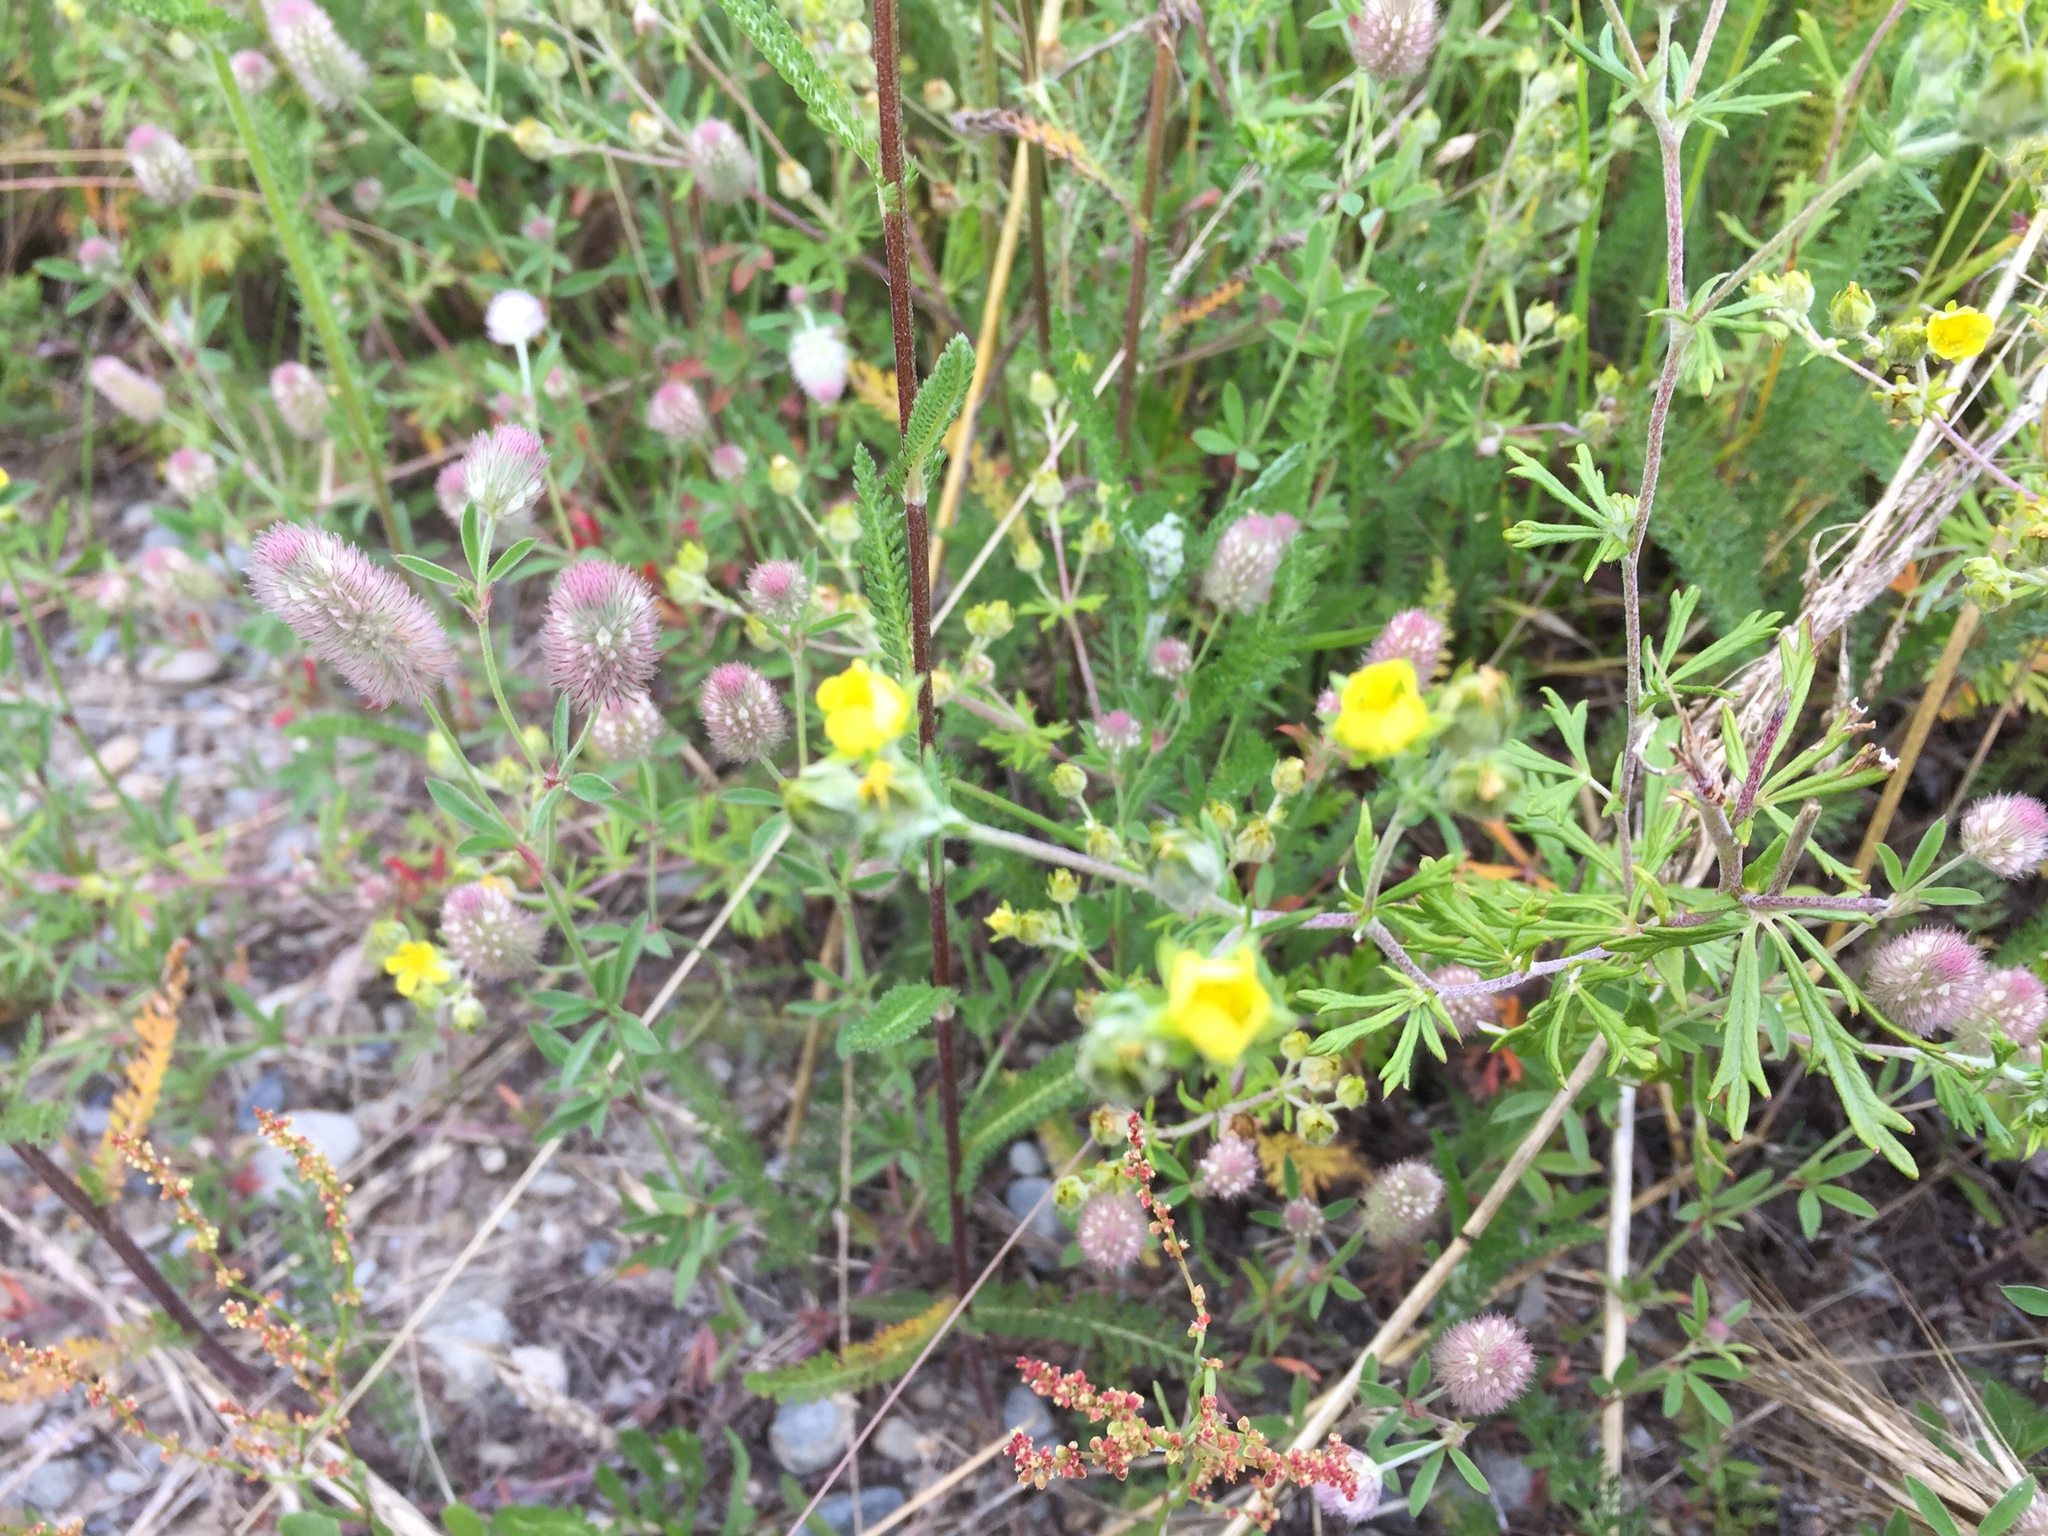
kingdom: Plantae
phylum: Tracheophyta
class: Magnoliopsida
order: Rosales
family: Rosaceae
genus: Potentilla
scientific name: Potentilla argentea
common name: Hoary cinquefoil
